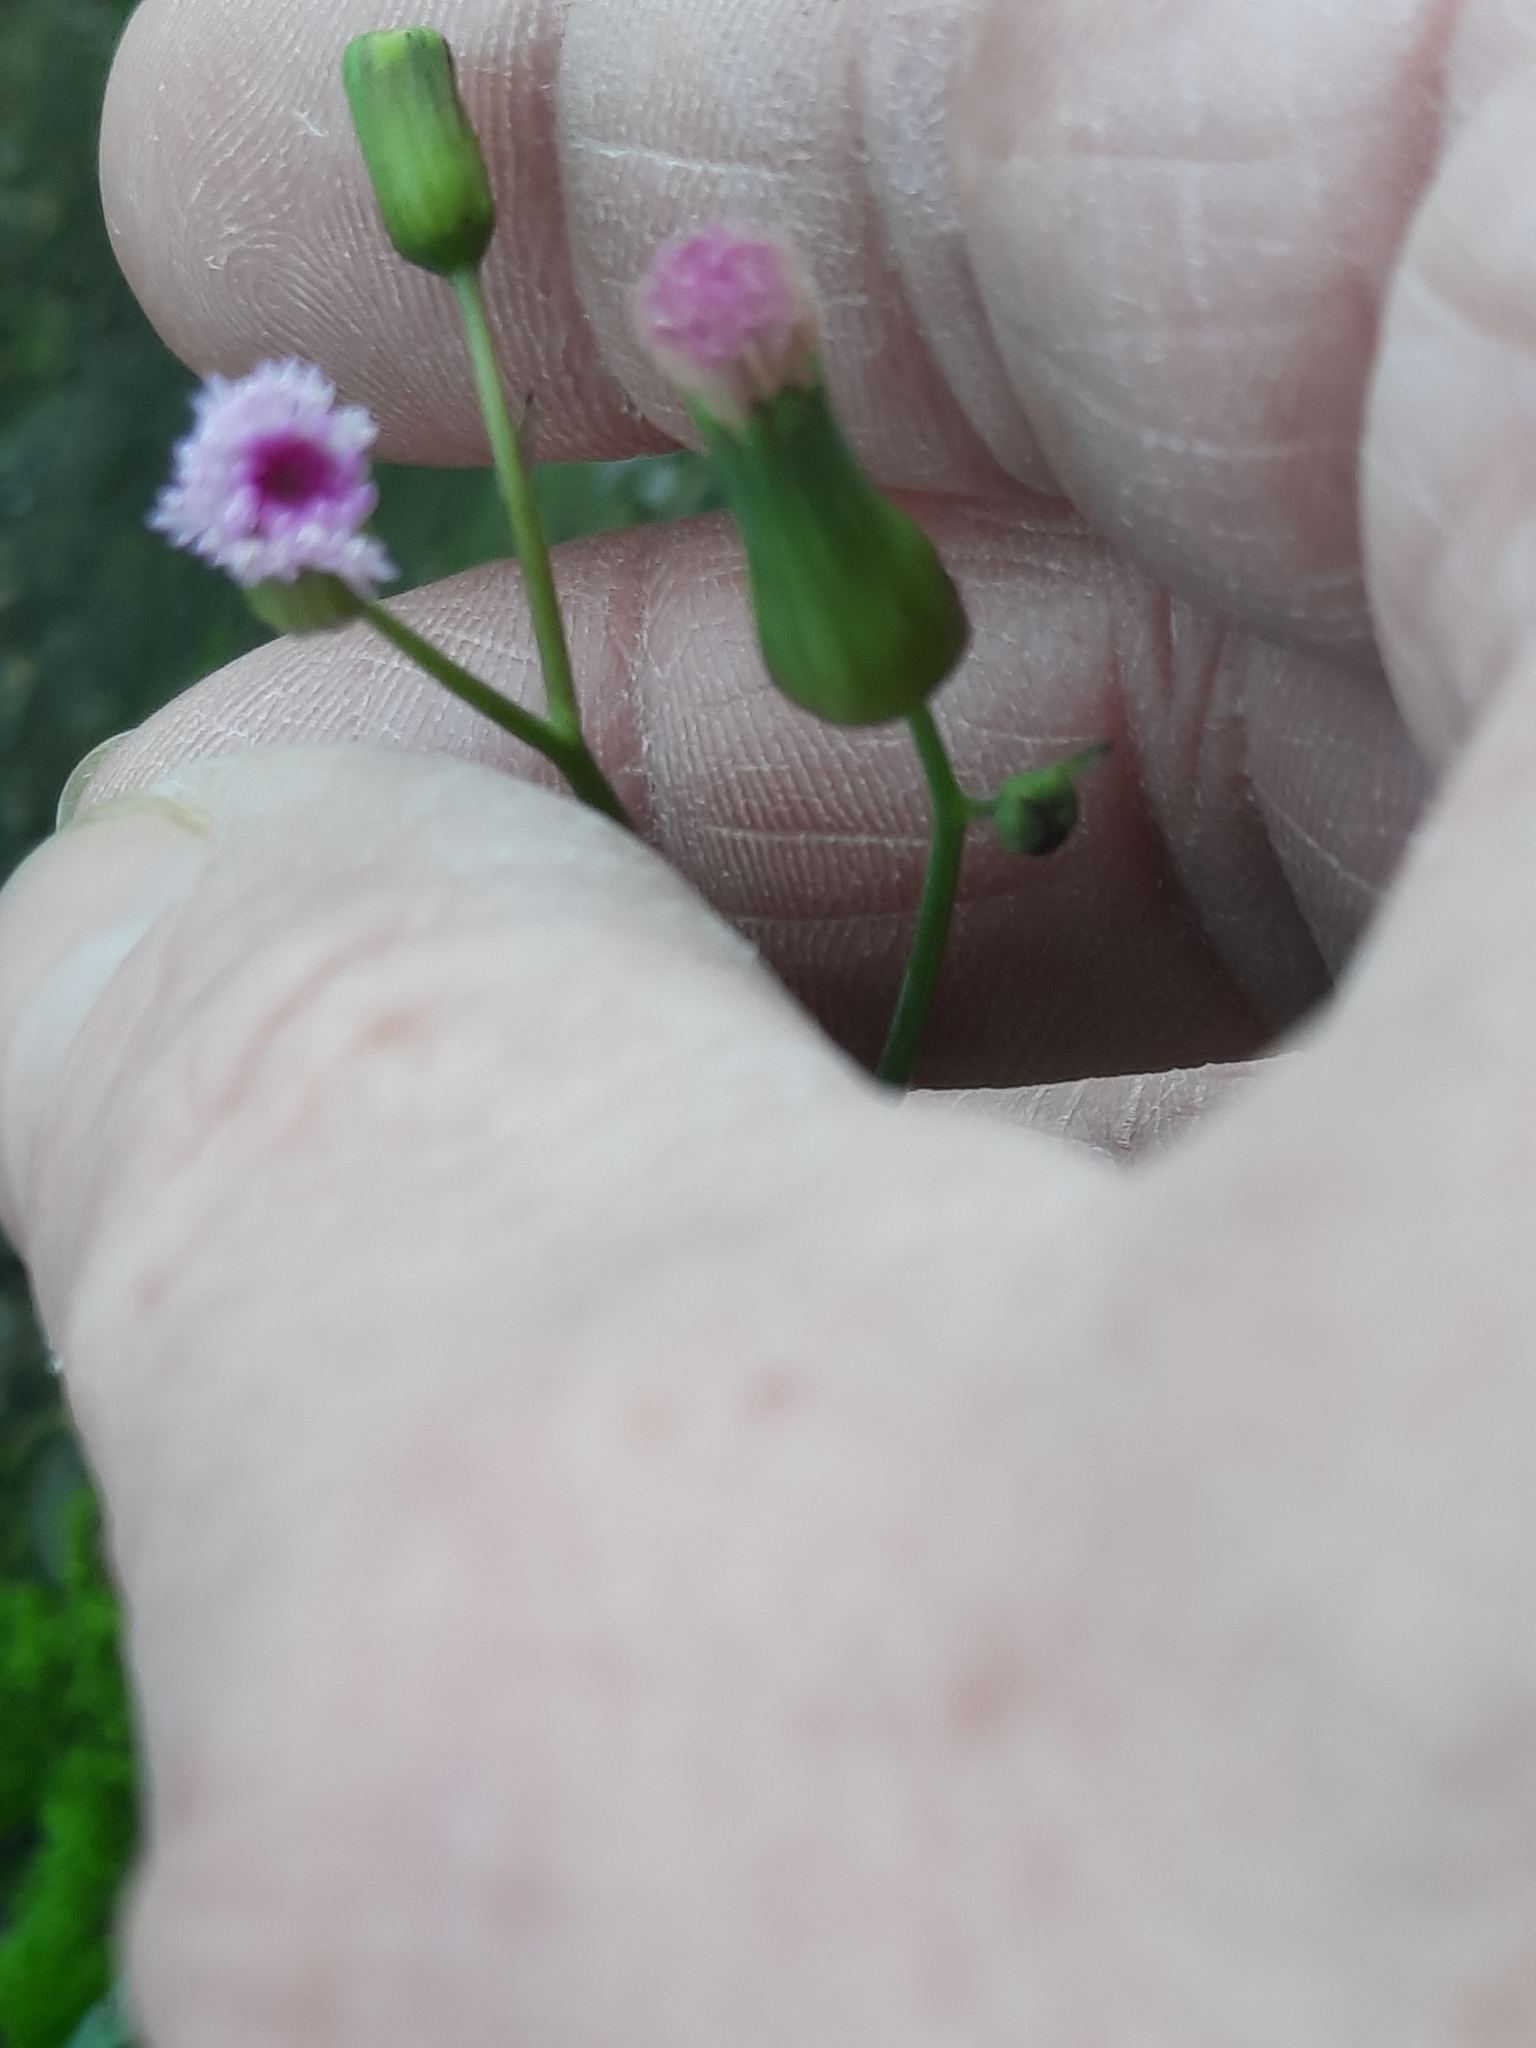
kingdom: Plantae
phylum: Tracheophyta
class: Magnoliopsida
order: Asterales
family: Asteraceae
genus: Emilia
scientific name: Emilia javanica
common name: Tassel-flower
